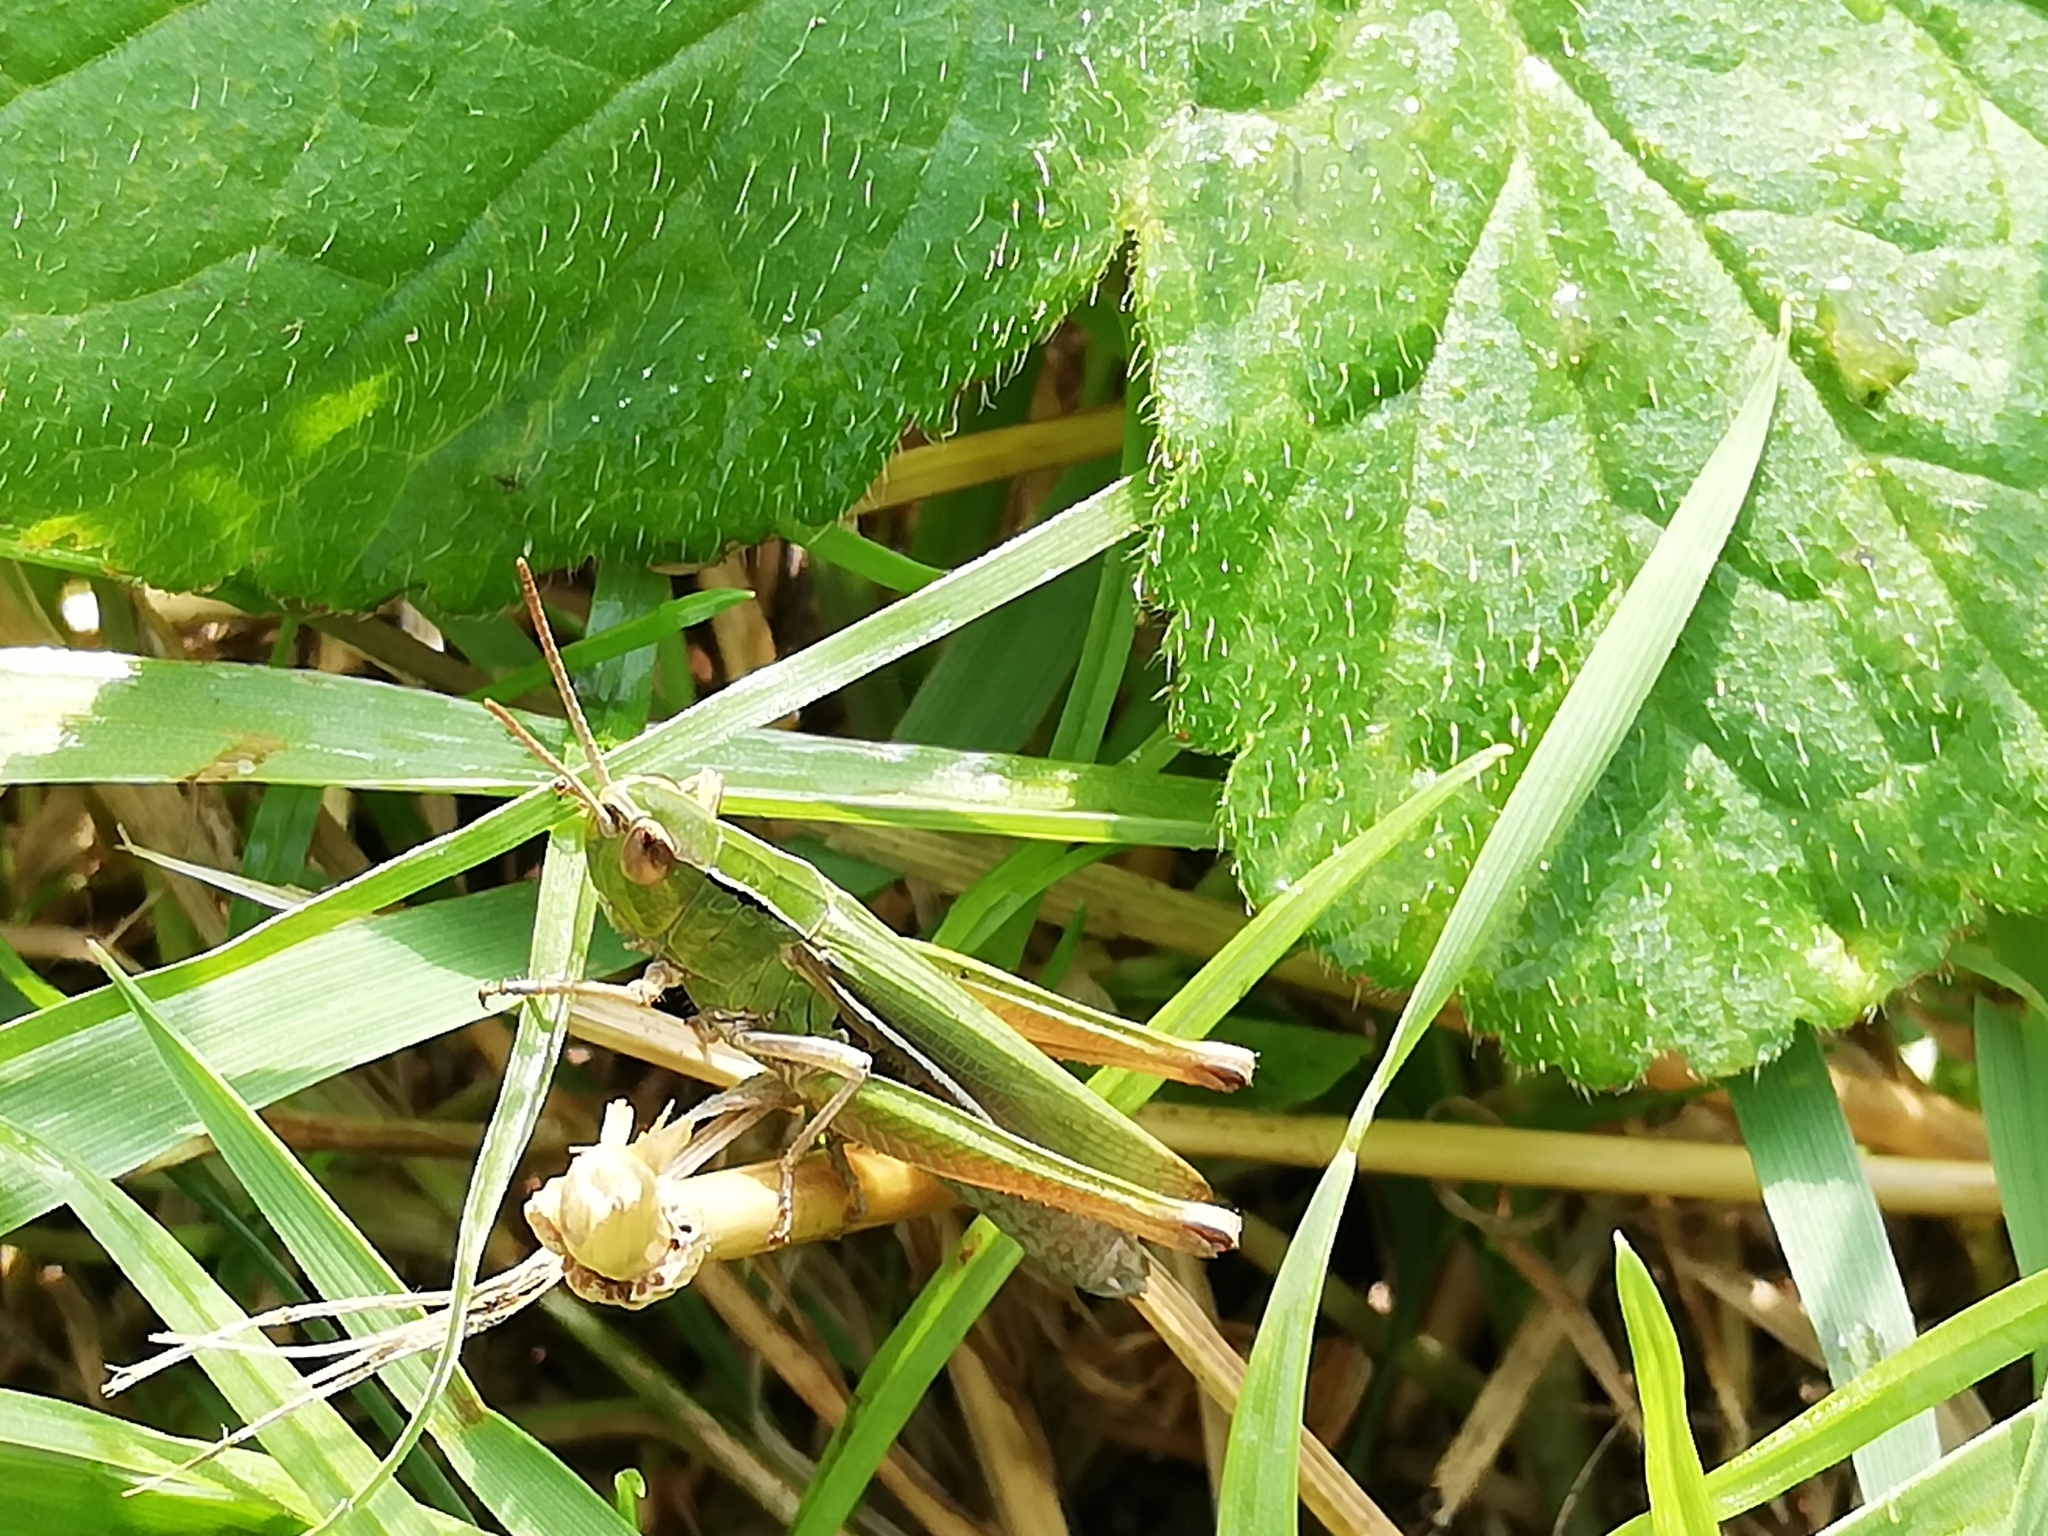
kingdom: Animalia
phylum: Arthropoda
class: Insecta
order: Orthoptera
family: Acrididae
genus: Chorthippus
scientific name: Chorthippus albomarginatus
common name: Lesser marsh grasshopper
